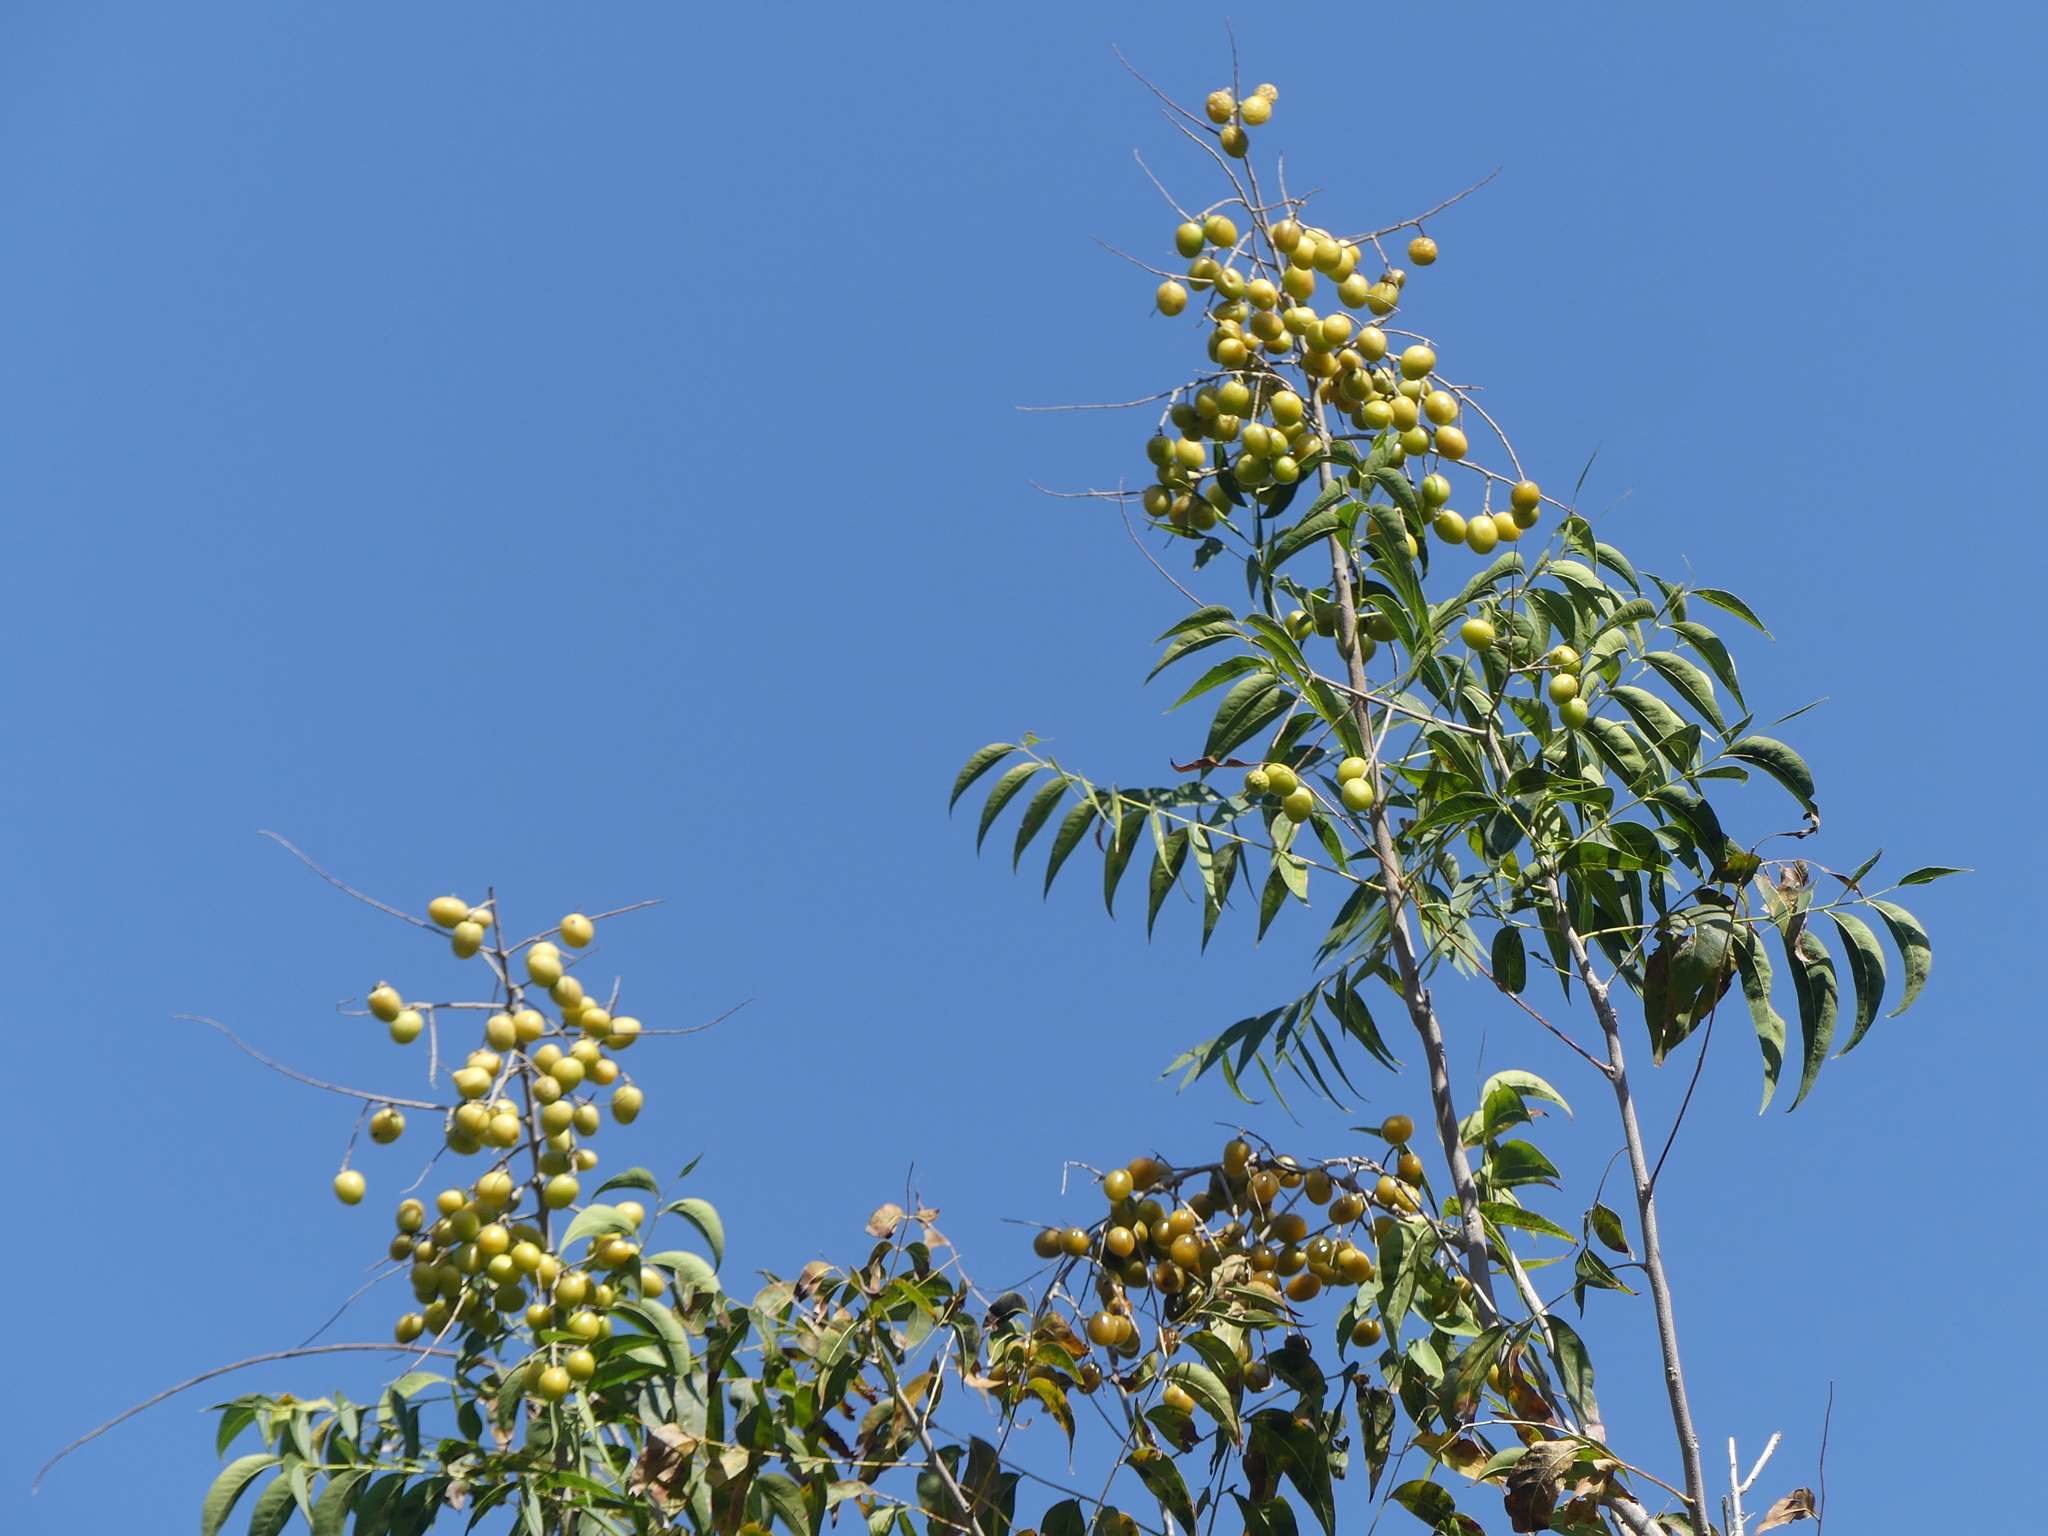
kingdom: Plantae
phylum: Tracheophyta
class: Magnoliopsida
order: Sapindales
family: Sapindaceae
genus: Sapindus
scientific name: Sapindus drummondii
